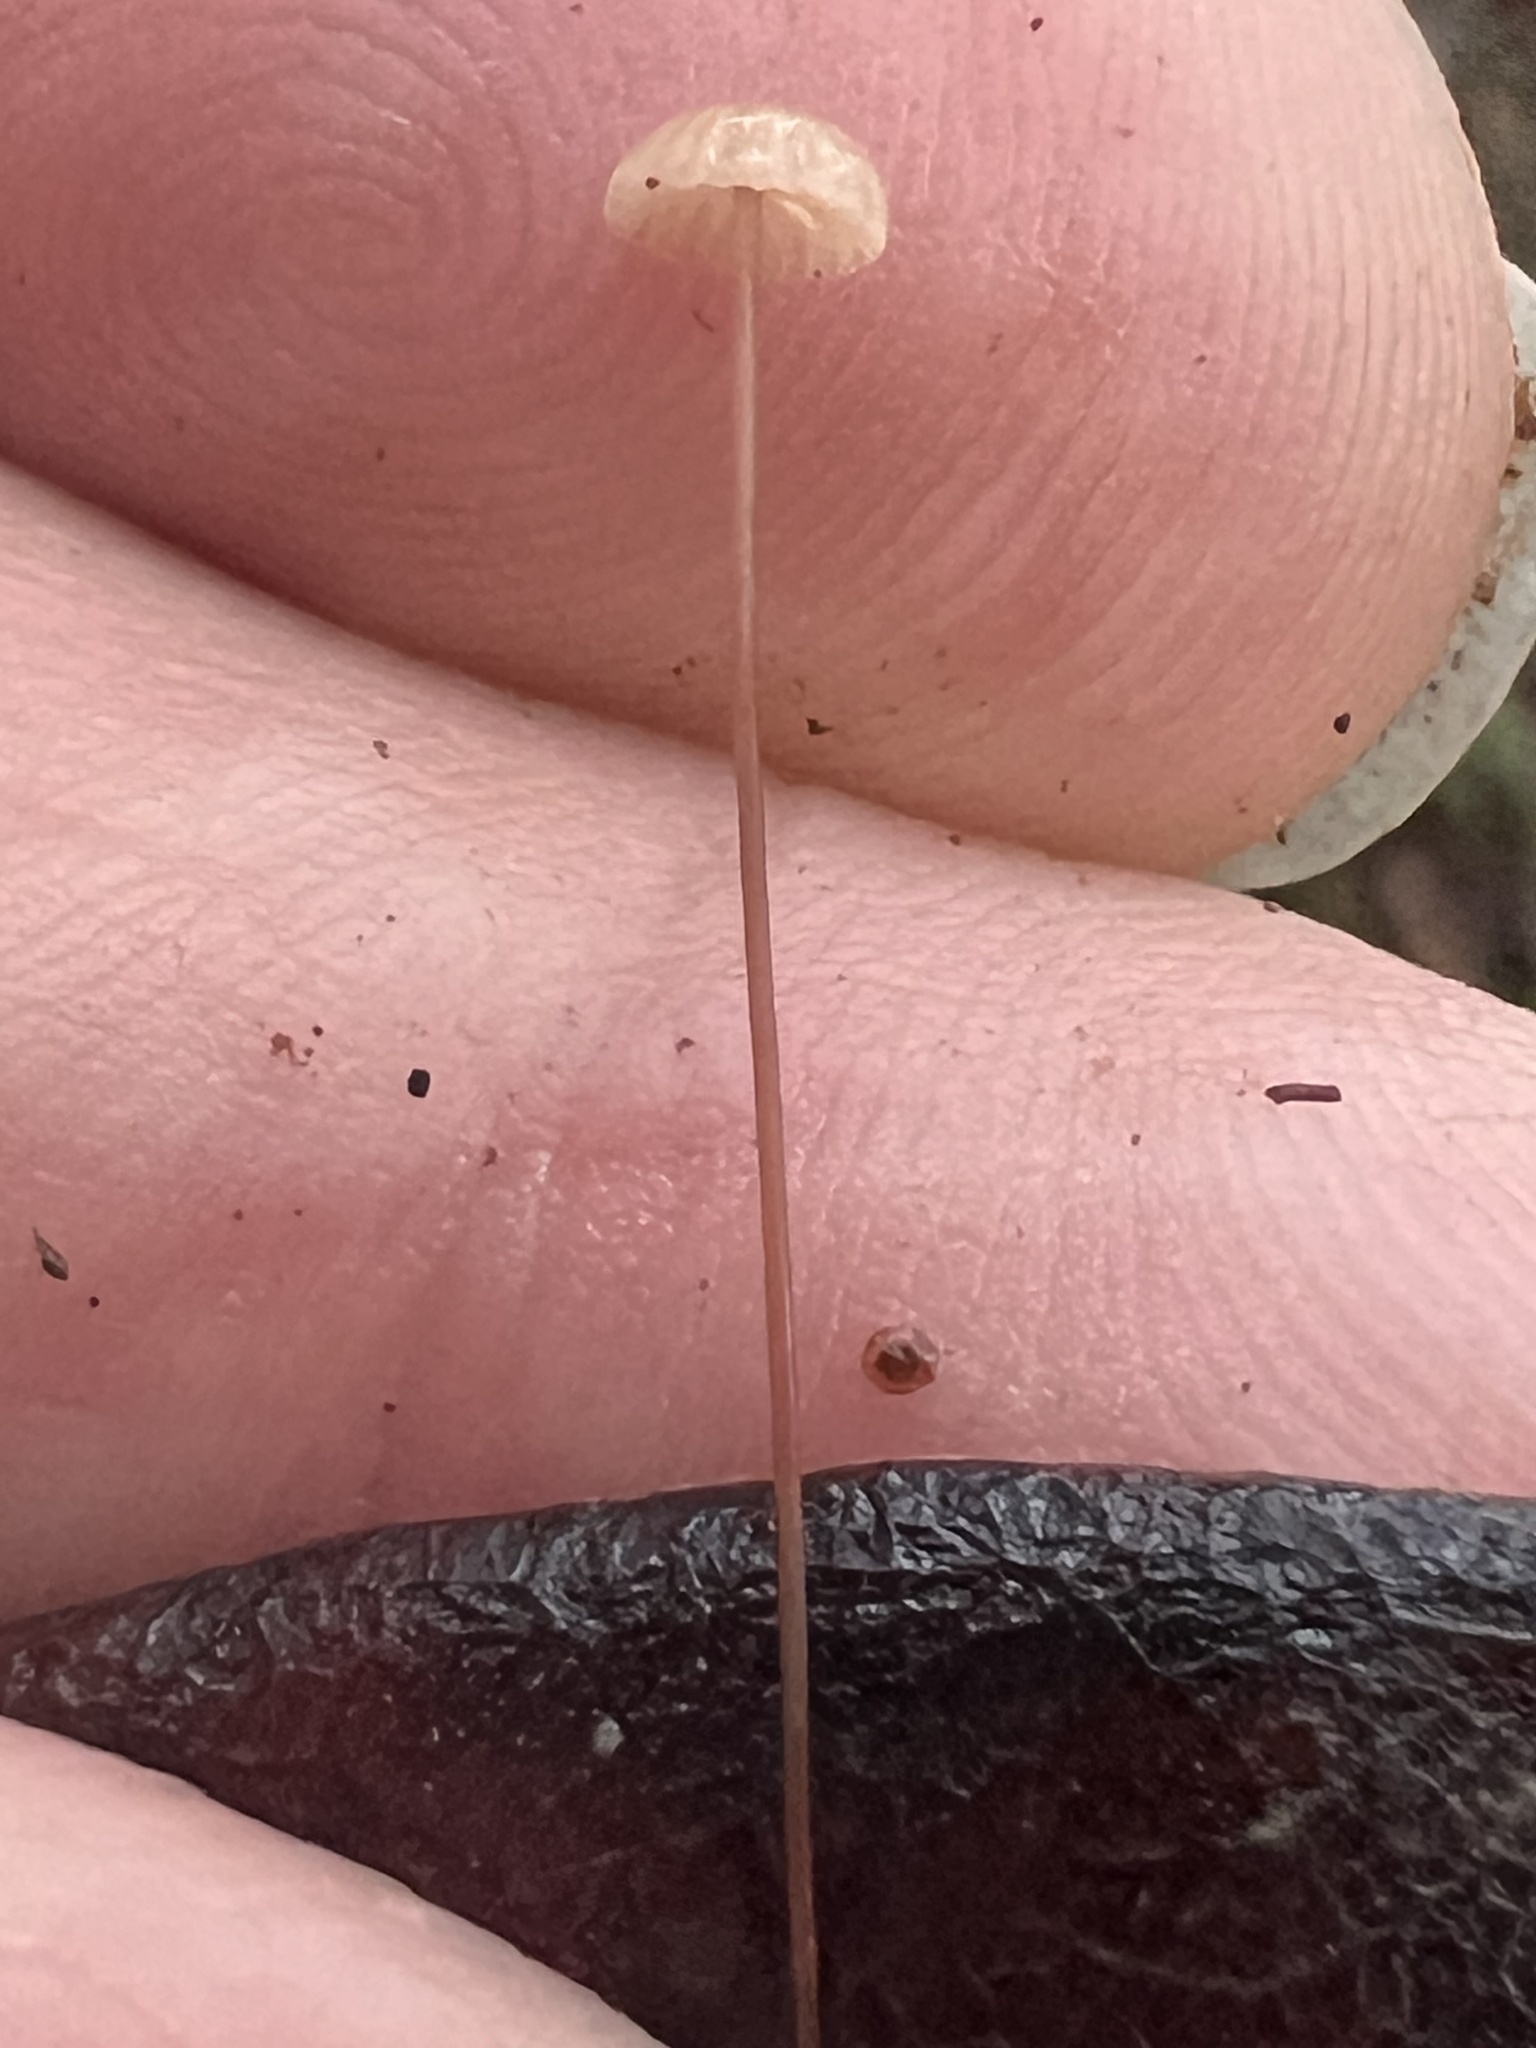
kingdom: Fungi
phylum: Basidiomycota
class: Agaricomycetes
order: Agaricales
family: Marasmiaceae
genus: Marasmius
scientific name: Marasmius crinis-equi
